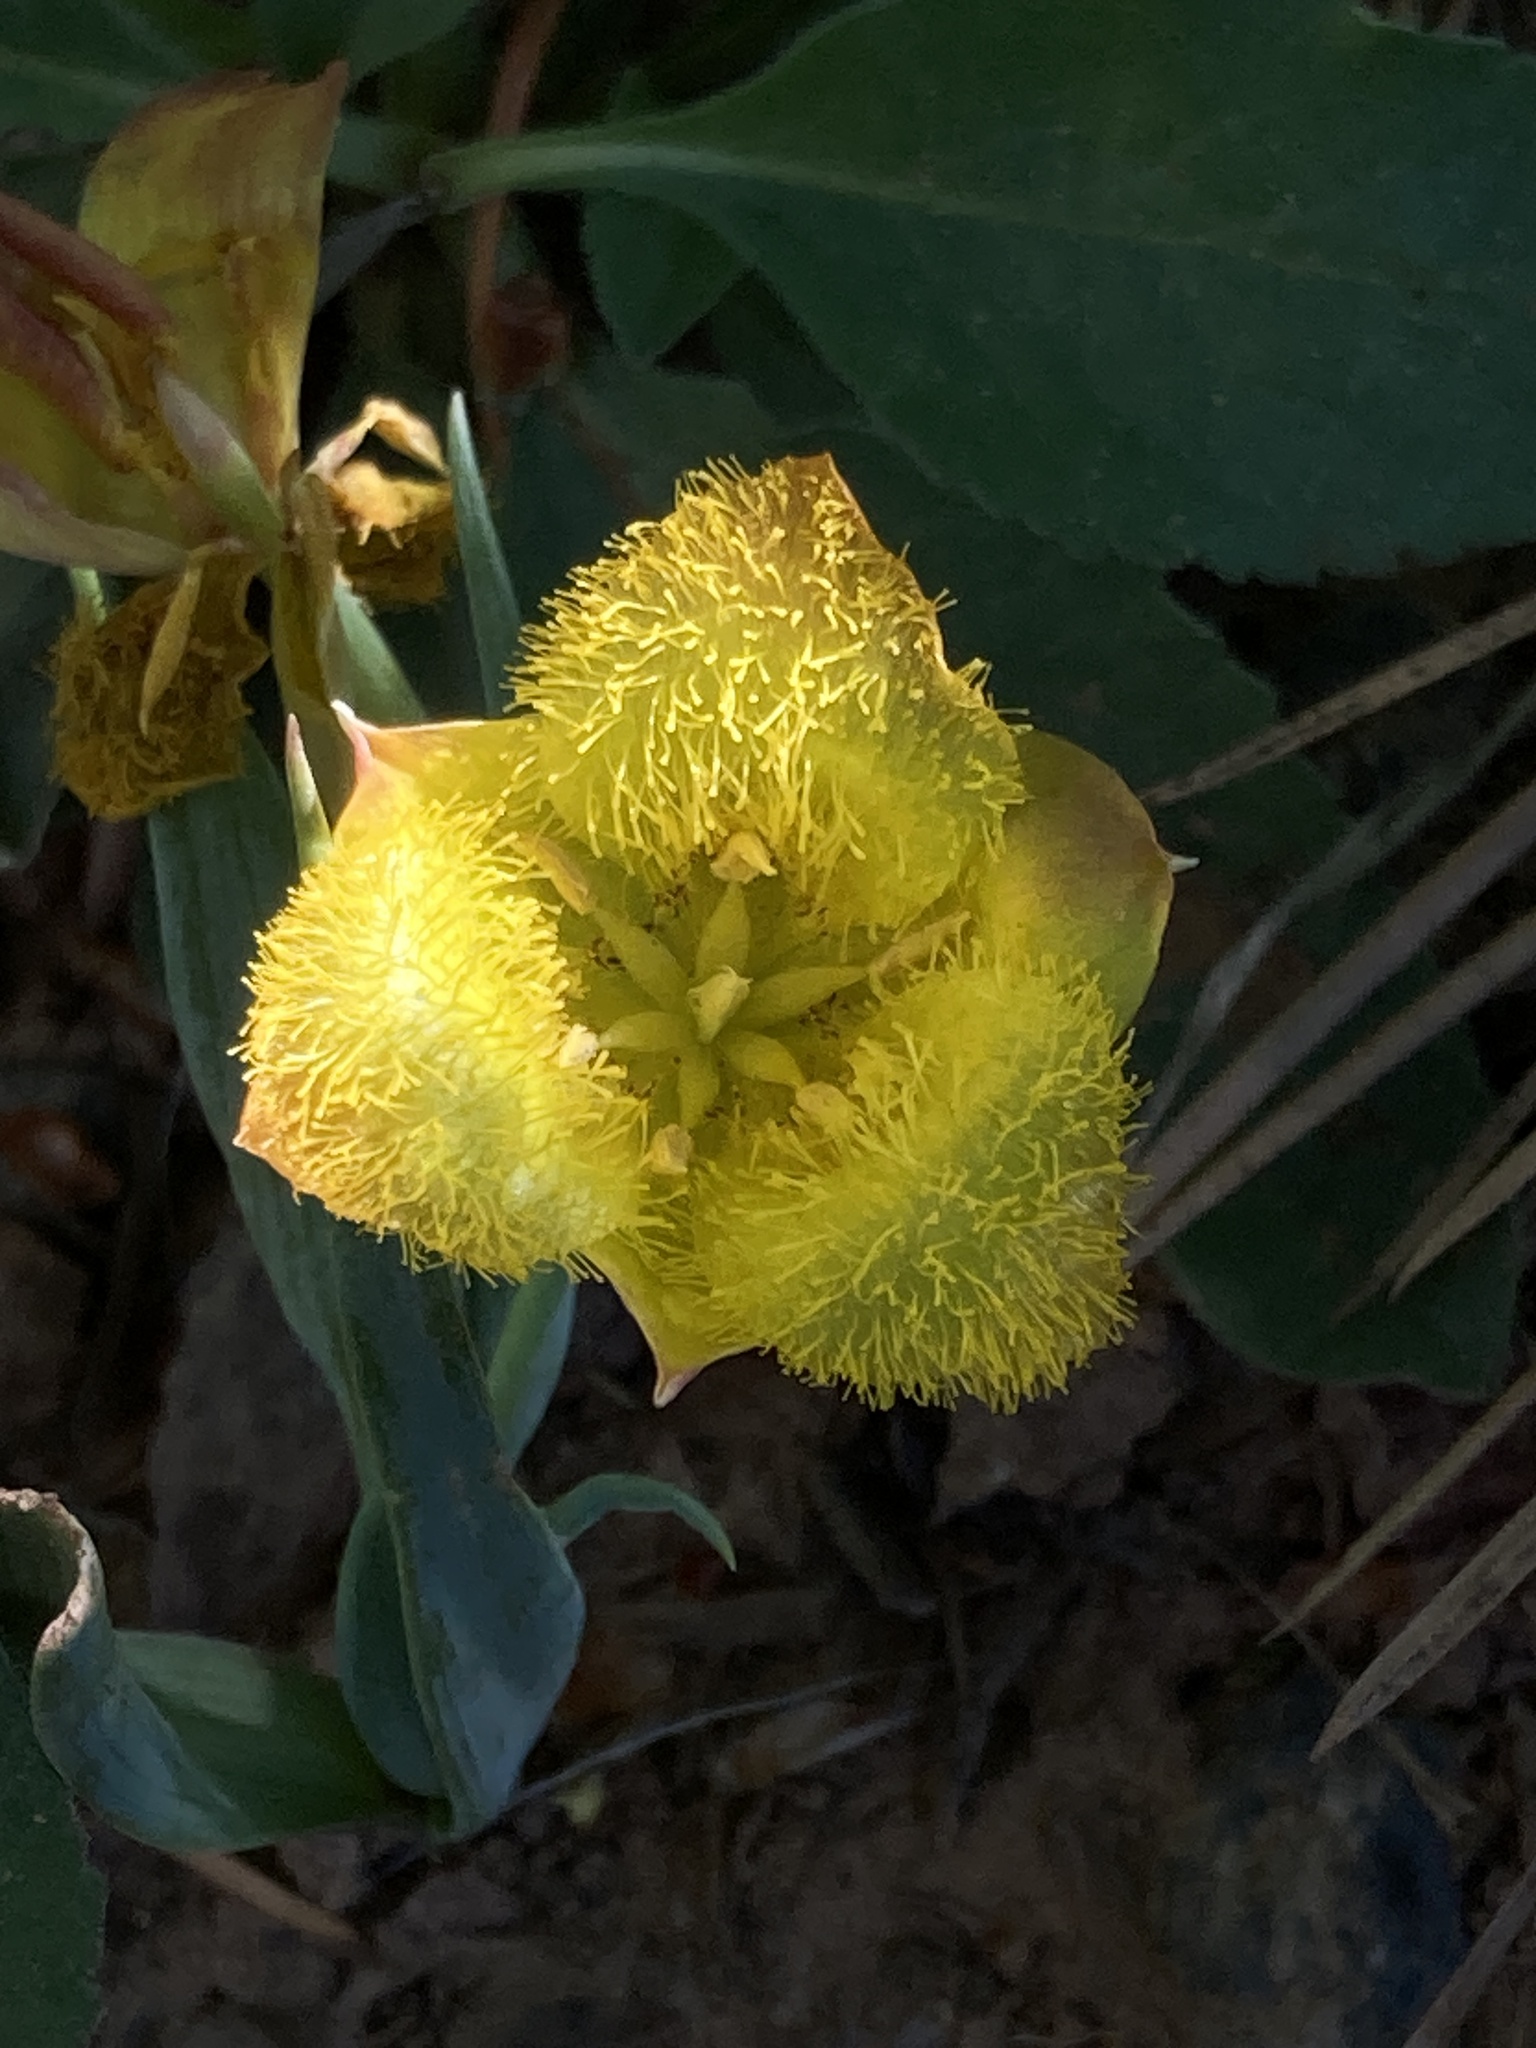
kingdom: Plantae
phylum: Tracheophyta
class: Liliopsida
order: Liliales
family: Liliaceae
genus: Calochortus
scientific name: Calochortus monophyllus
